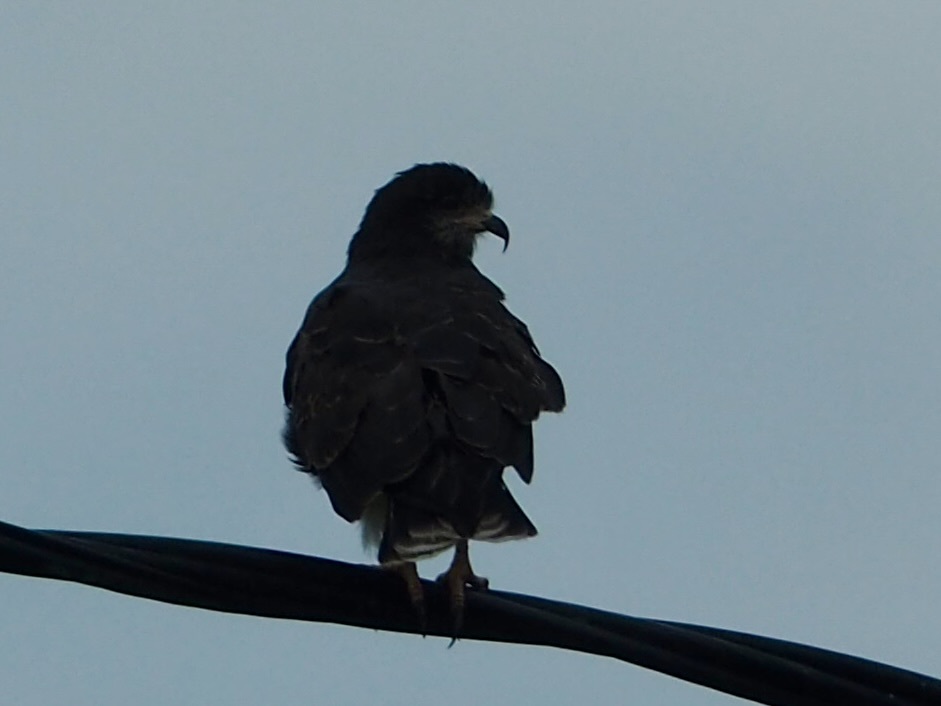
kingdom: Animalia
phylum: Chordata
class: Aves
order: Accipitriformes
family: Accipitridae
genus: Rostrhamus
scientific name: Rostrhamus sociabilis
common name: Snail kite
